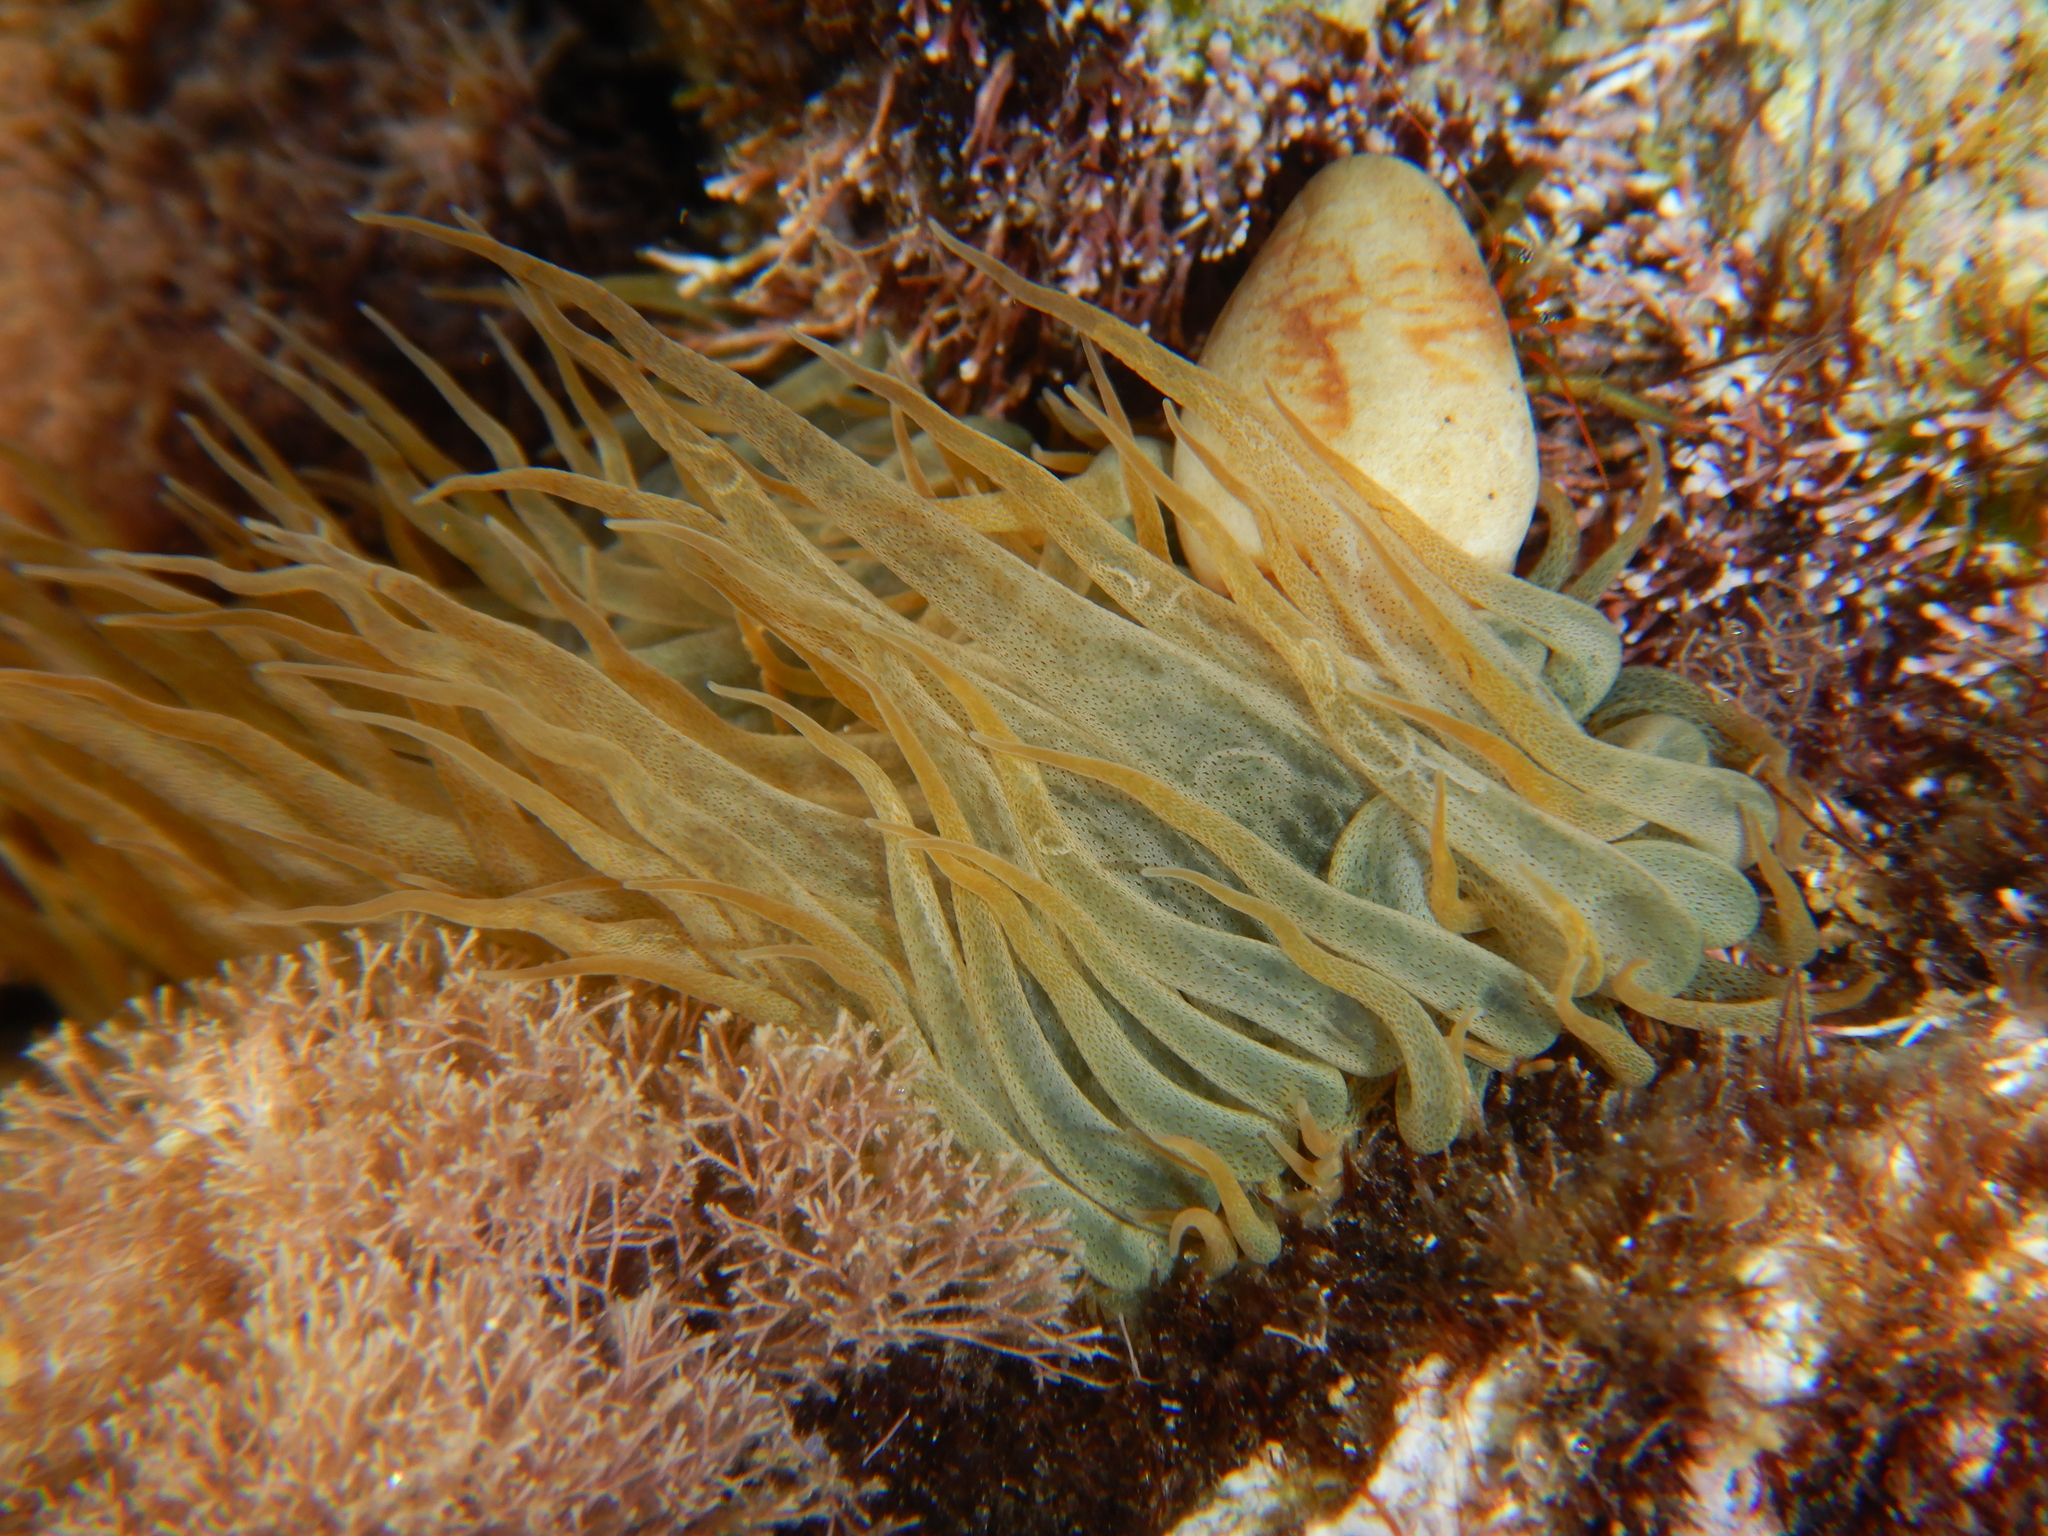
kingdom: Animalia
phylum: Cnidaria
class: Anthozoa
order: Actiniaria
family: Aiptasiidae
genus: Aiptasia
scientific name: Aiptasia mutabilis
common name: Trumpet anemone
